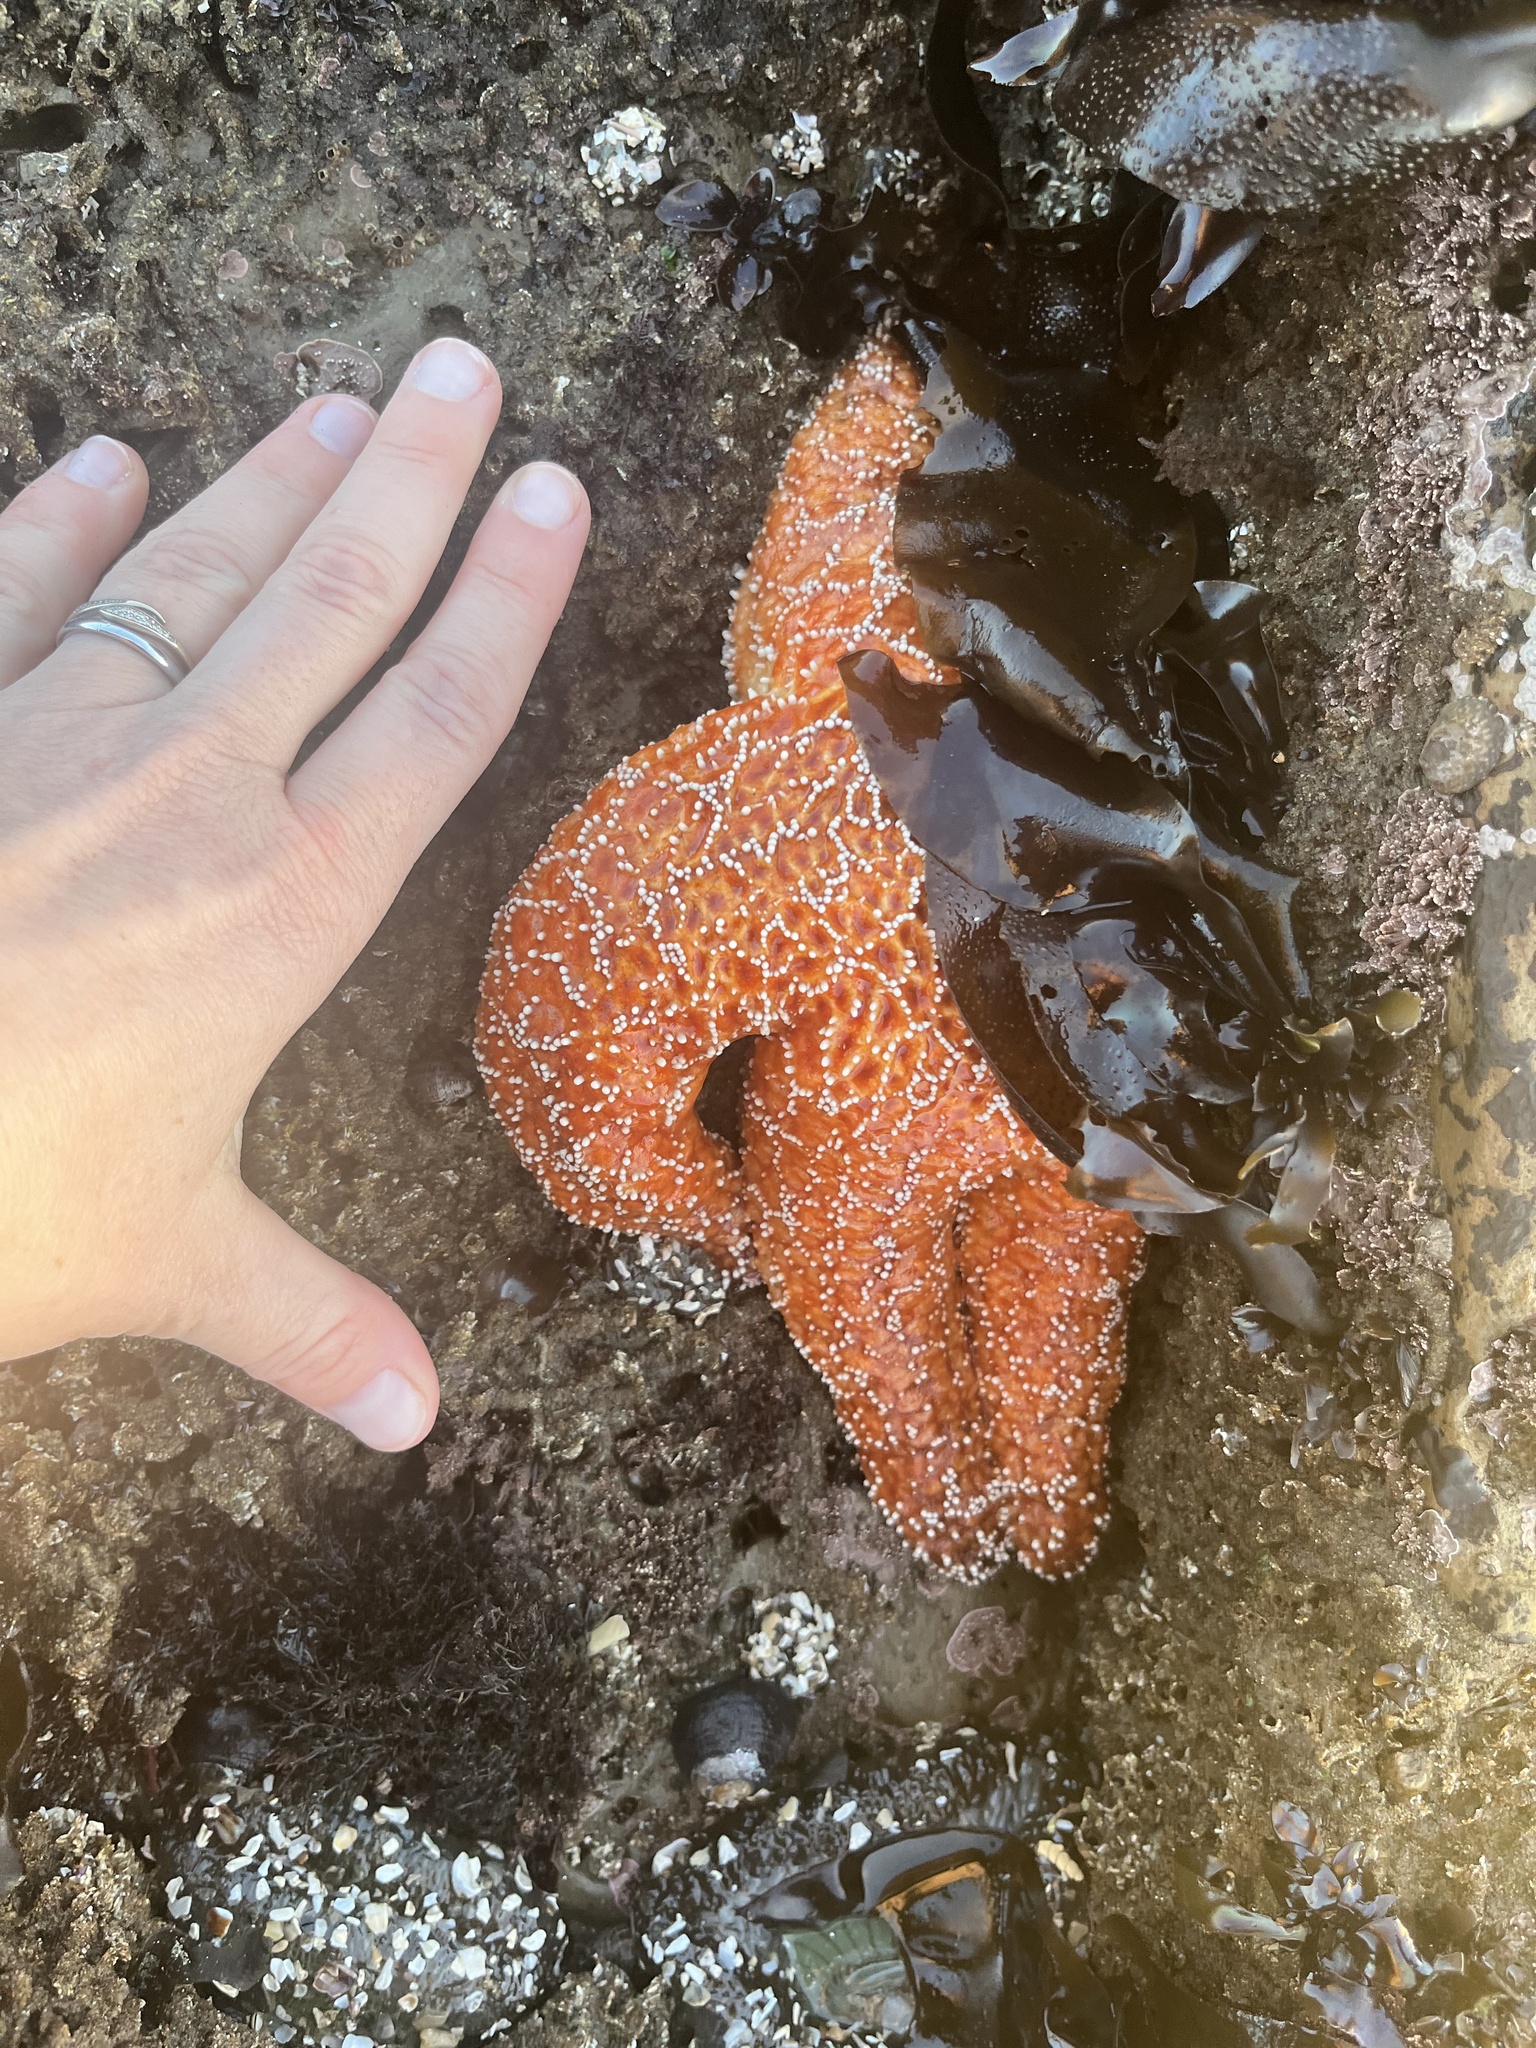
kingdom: Animalia
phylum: Echinodermata
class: Asteroidea
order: Forcipulatida
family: Asteriidae
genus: Pisaster
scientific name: Pisaster ochraceus
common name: Ochre stars
